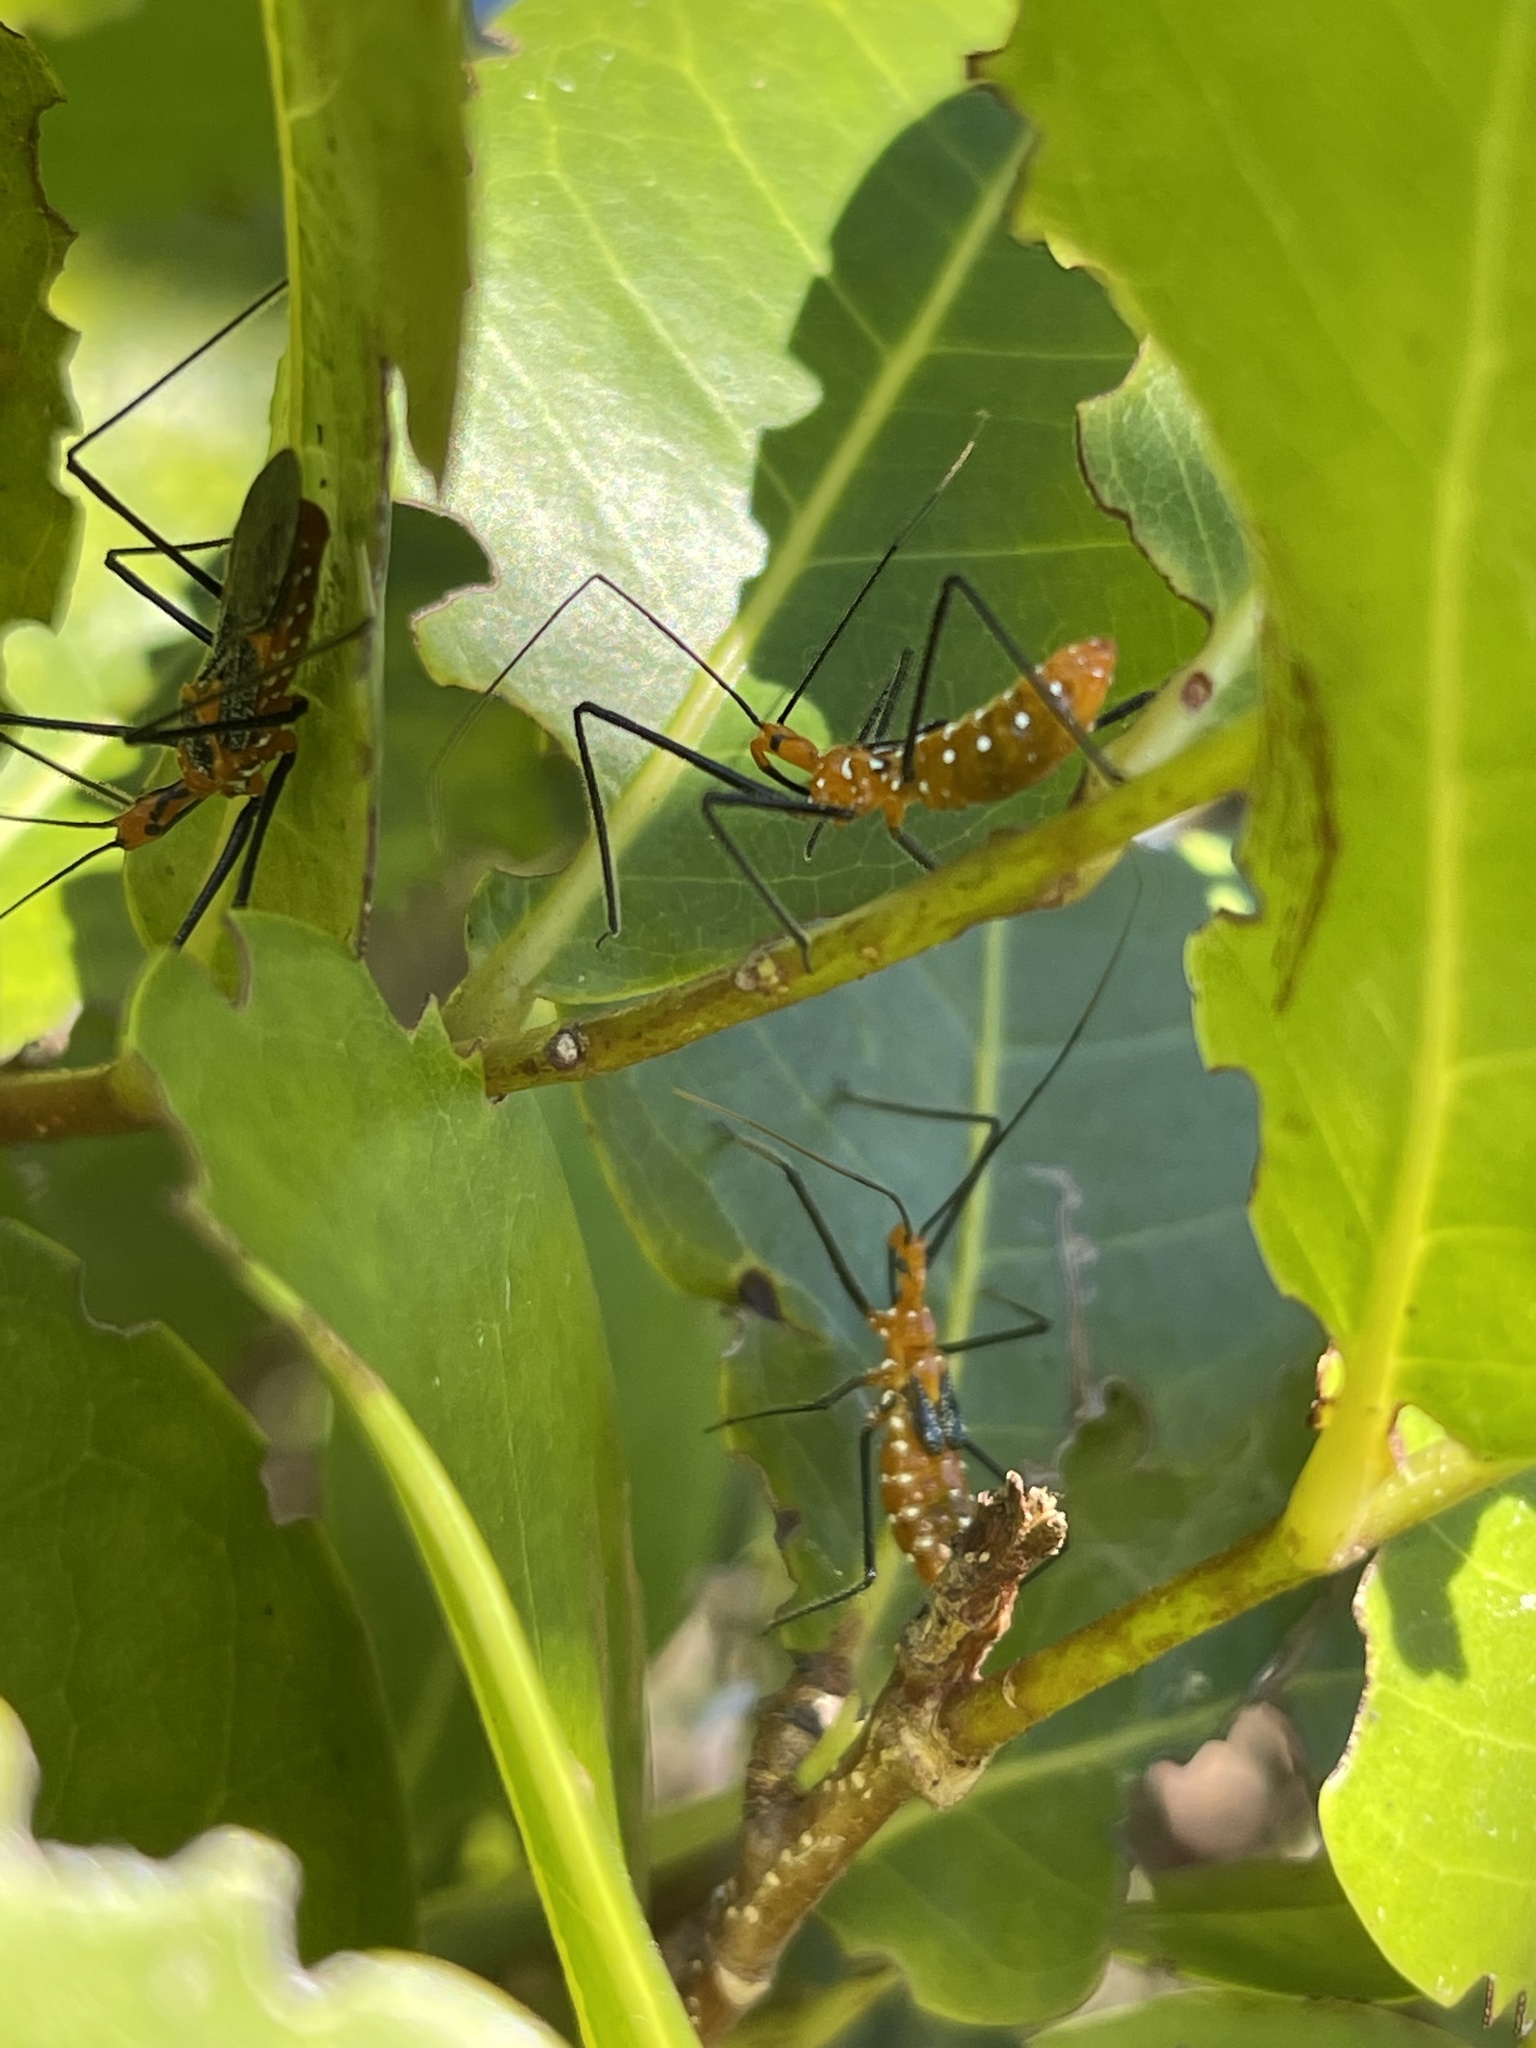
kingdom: Animalia
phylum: Arthropoda
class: Insecta
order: Hemiptera
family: Reduviidae
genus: Zelus
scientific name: Zelus longipes
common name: Milkweed assassin bug
